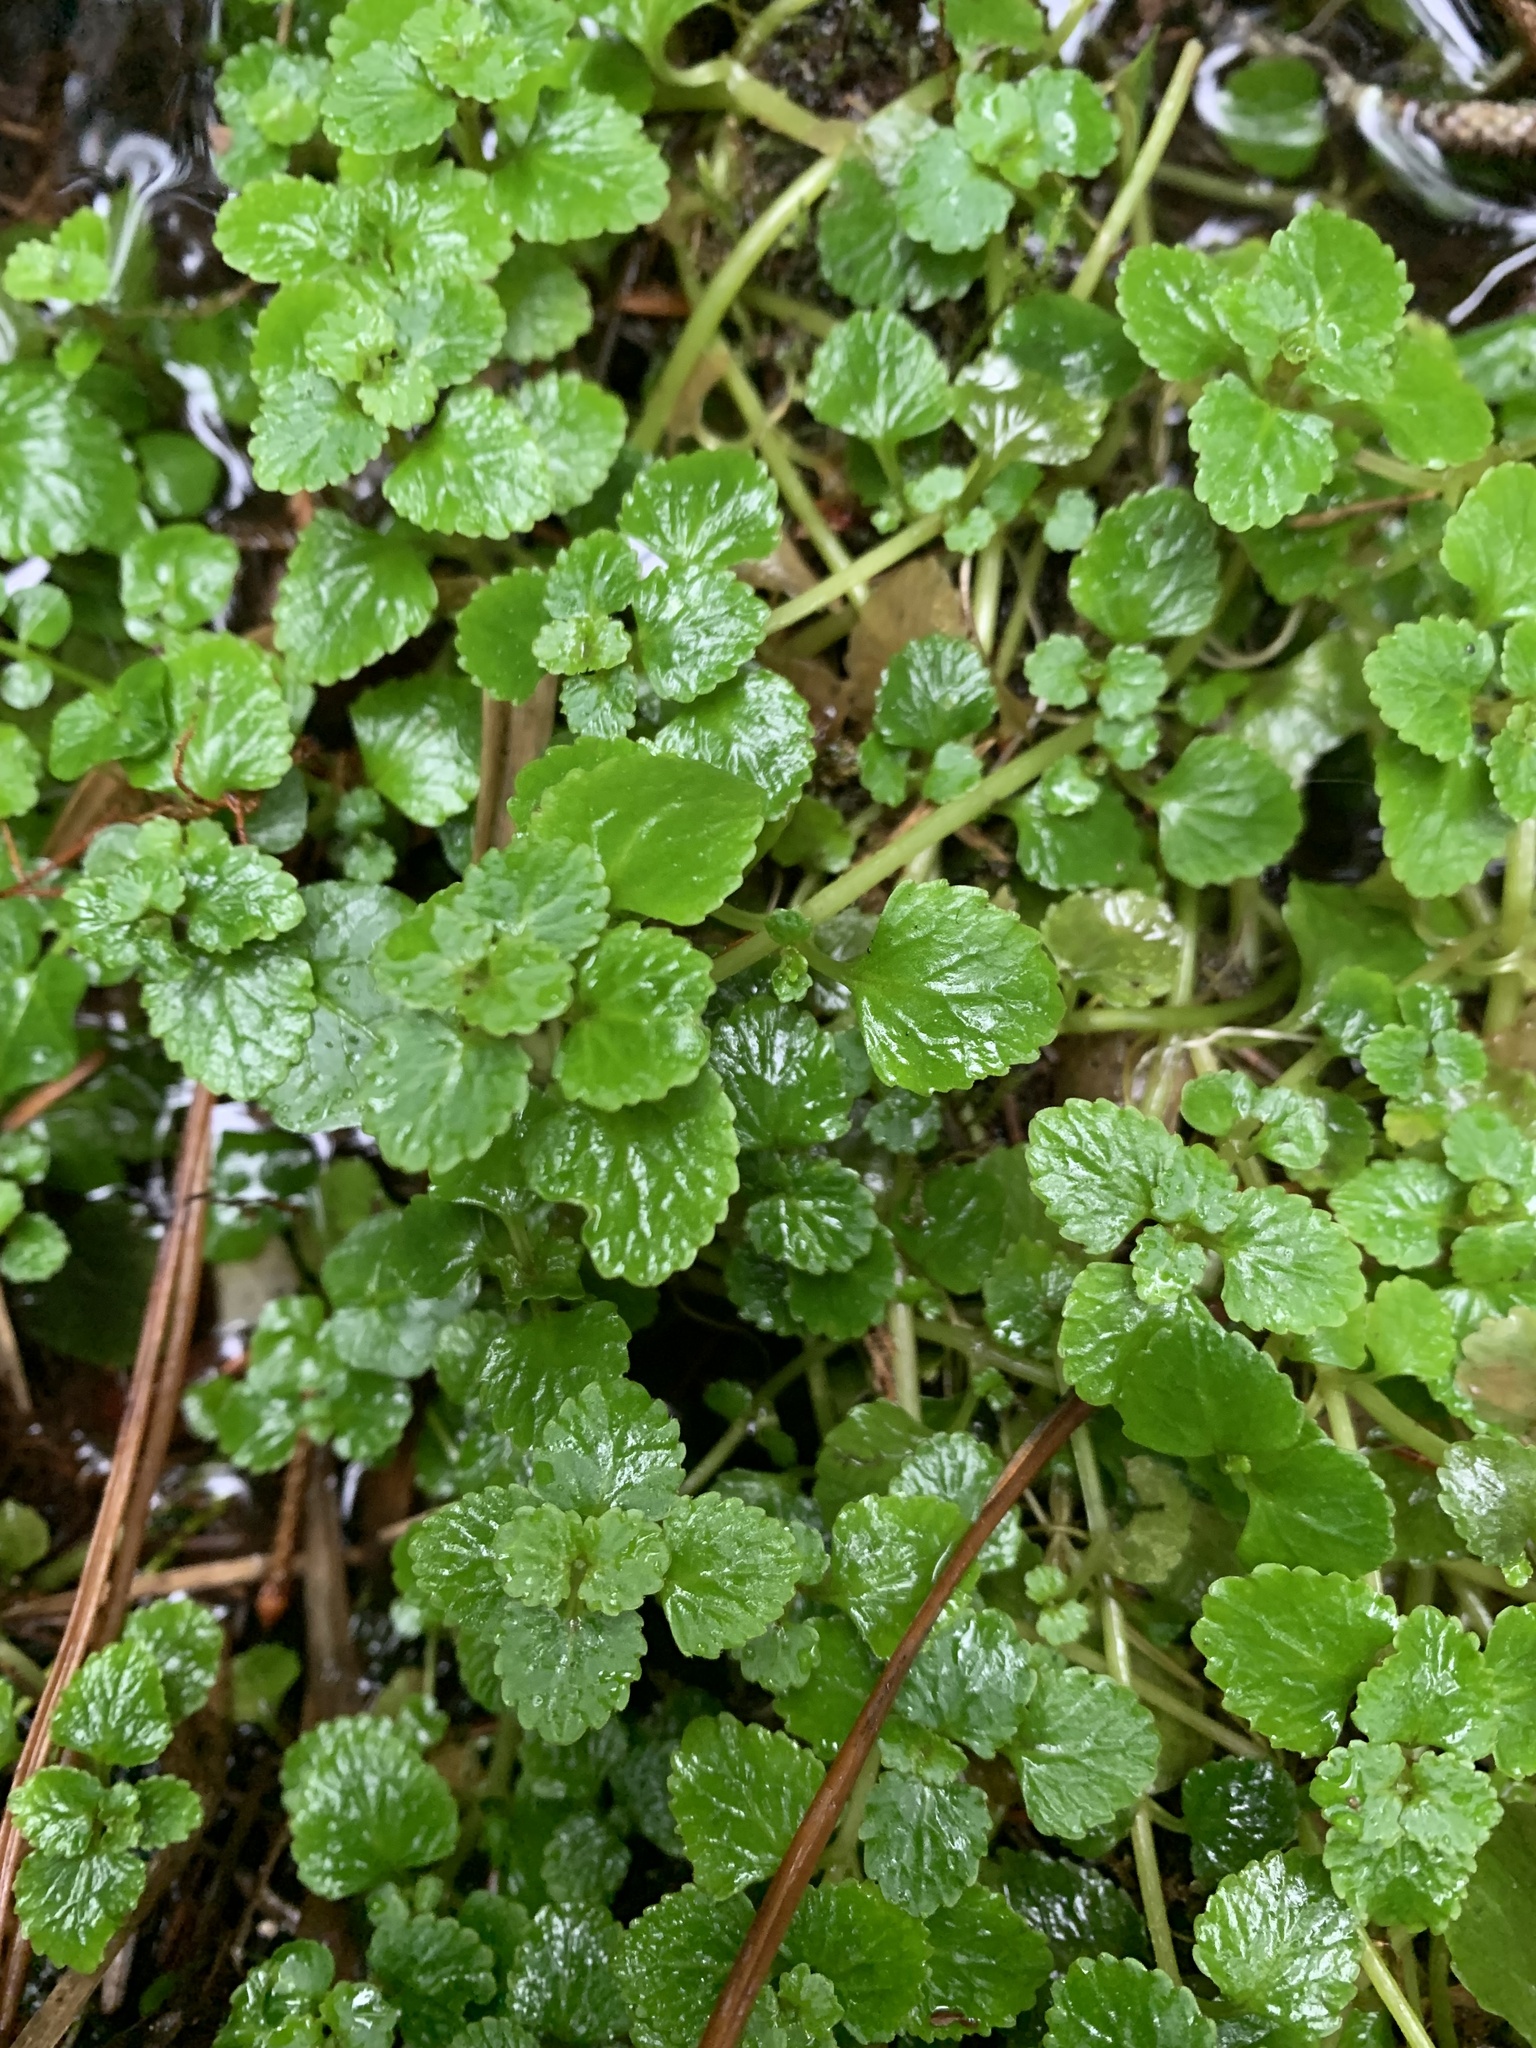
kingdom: Plantae
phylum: Tracheophyta
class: Magnoliopsida
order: Saxifragales
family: Saxifragaceae
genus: Chrysosplenium
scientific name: Chrysosplenium glechomifolium
